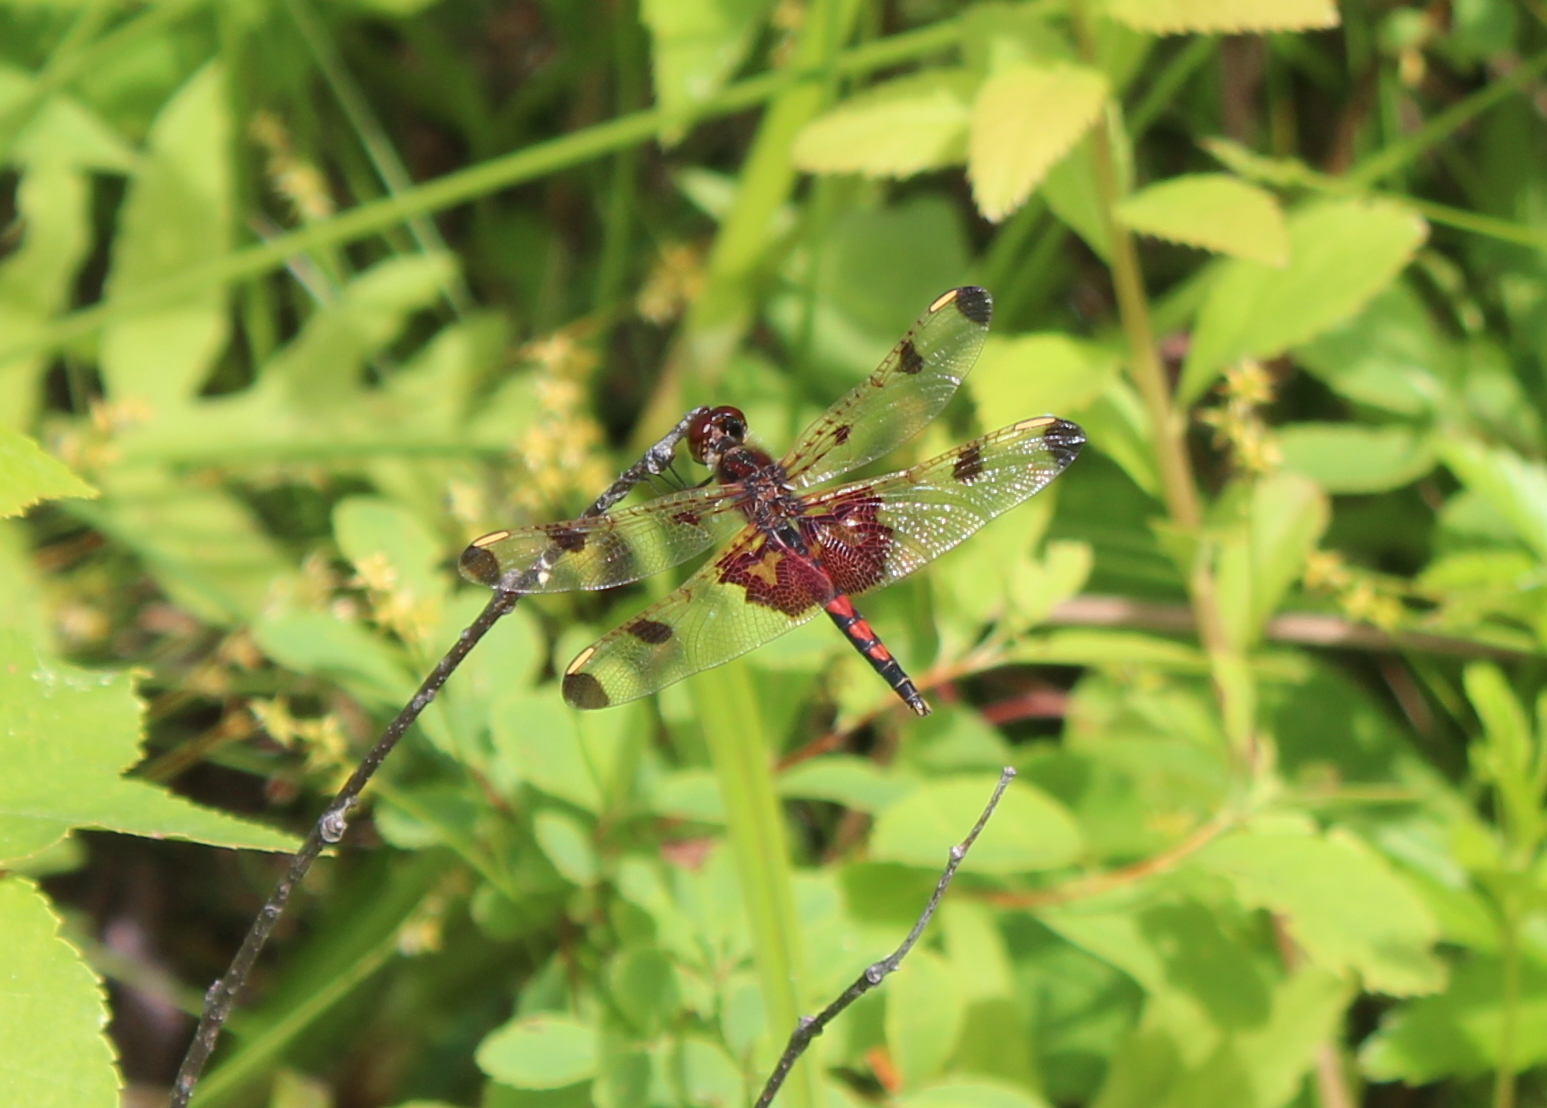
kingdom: Animalia
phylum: Arthropoda
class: Insecta
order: Odonata
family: Libellulidae
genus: Celithemis
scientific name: Celithemis elisa
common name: Calico pennant
